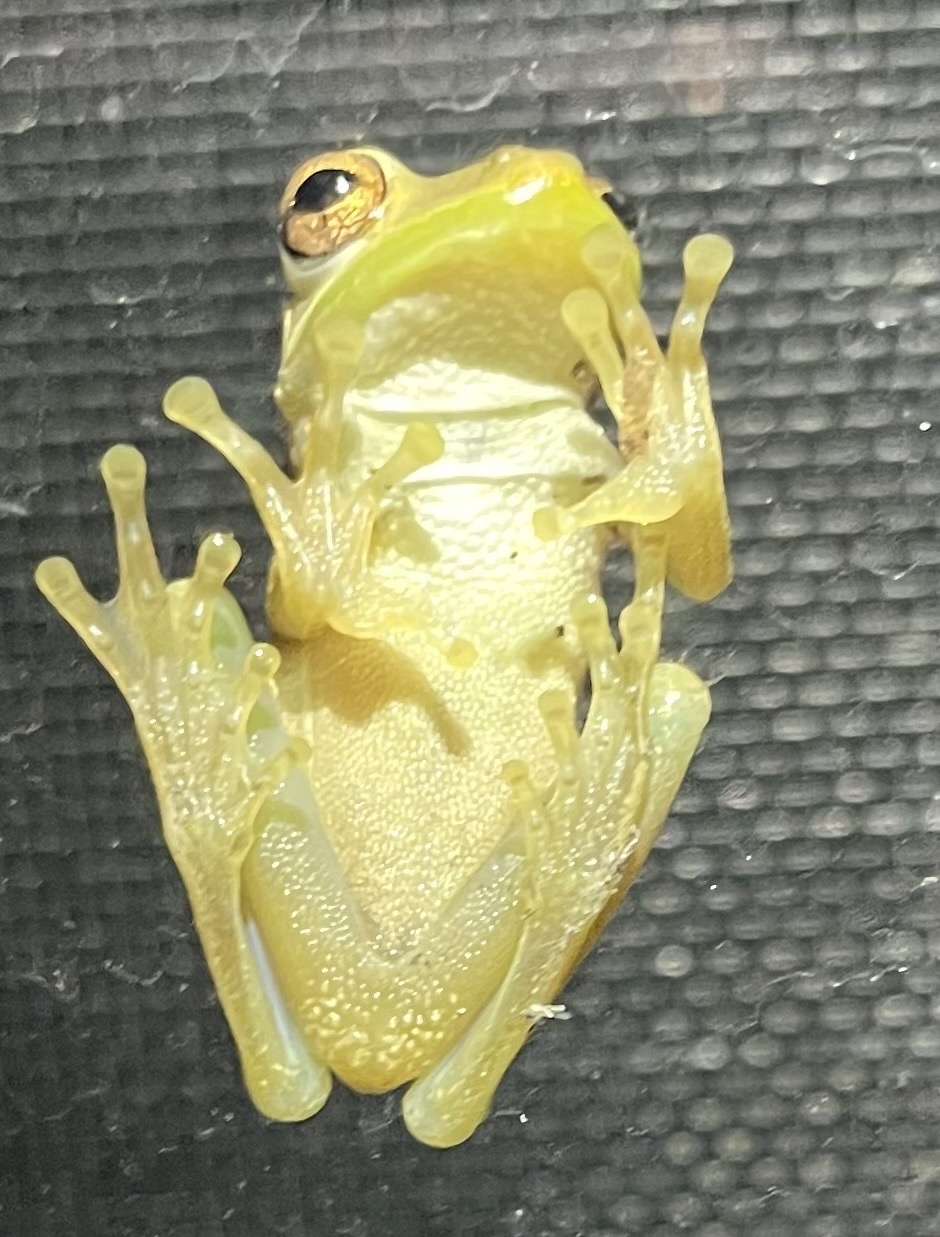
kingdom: Animalia
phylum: Chordata
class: Amphibia
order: Anura
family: Hylidae
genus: Osteopilus
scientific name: Osteopilus septentrionalis
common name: Cuban treefrog
